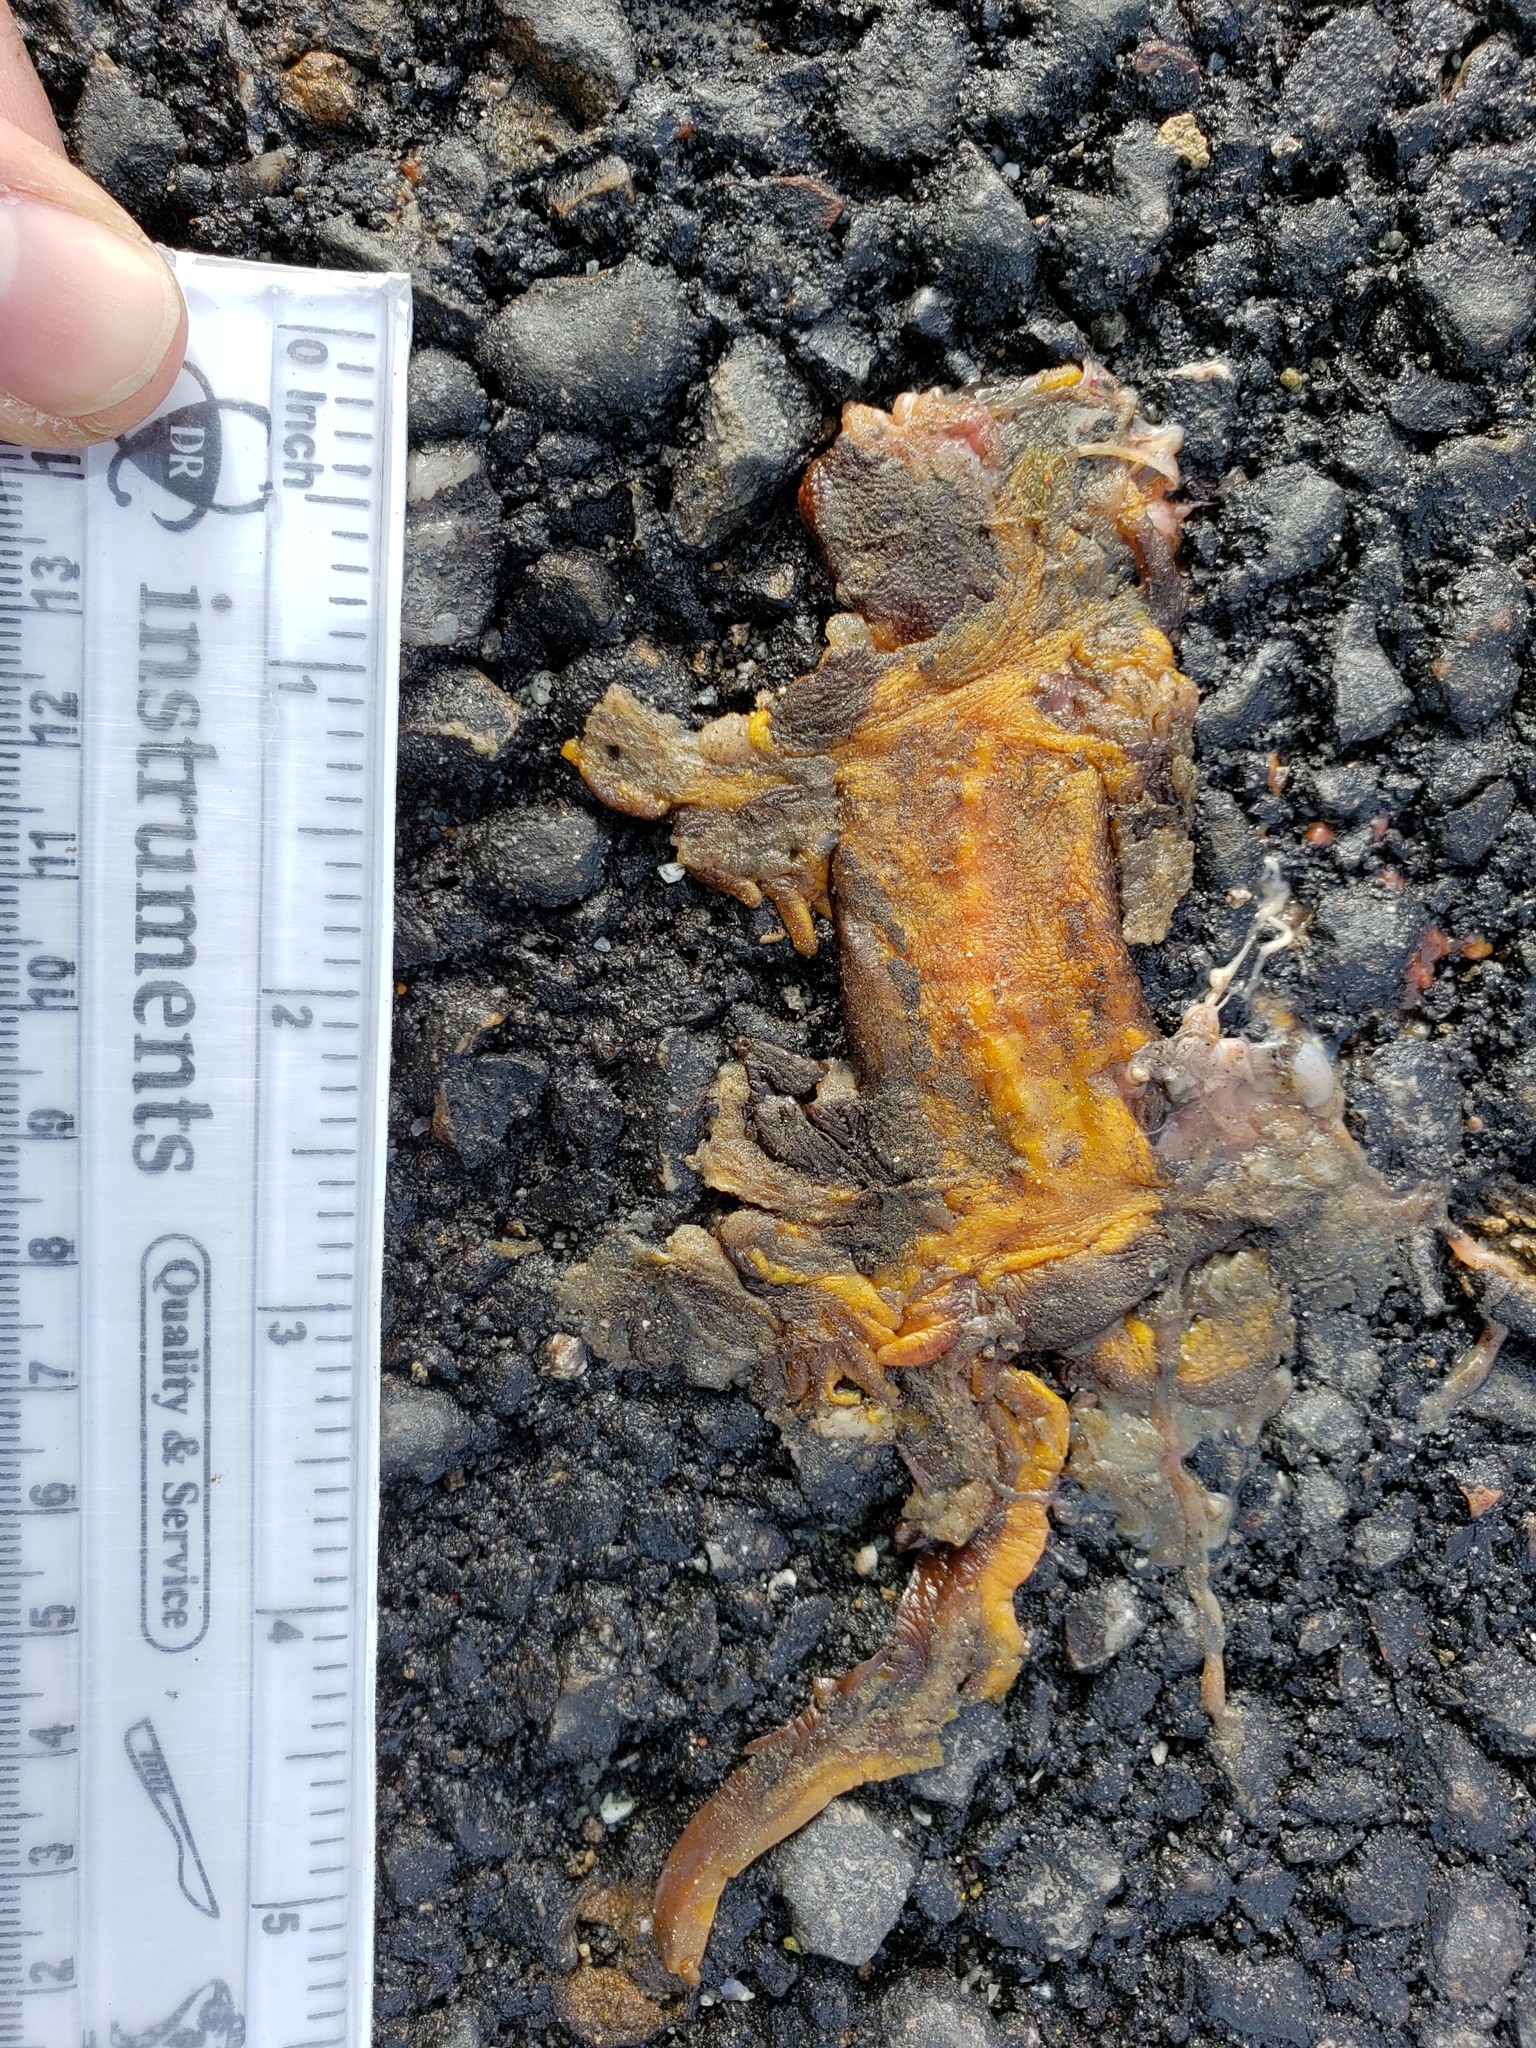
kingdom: Animalia
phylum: Chordata
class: Amphibia
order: Caudata
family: Salamandridae
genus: Taricha
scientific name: Taricha
